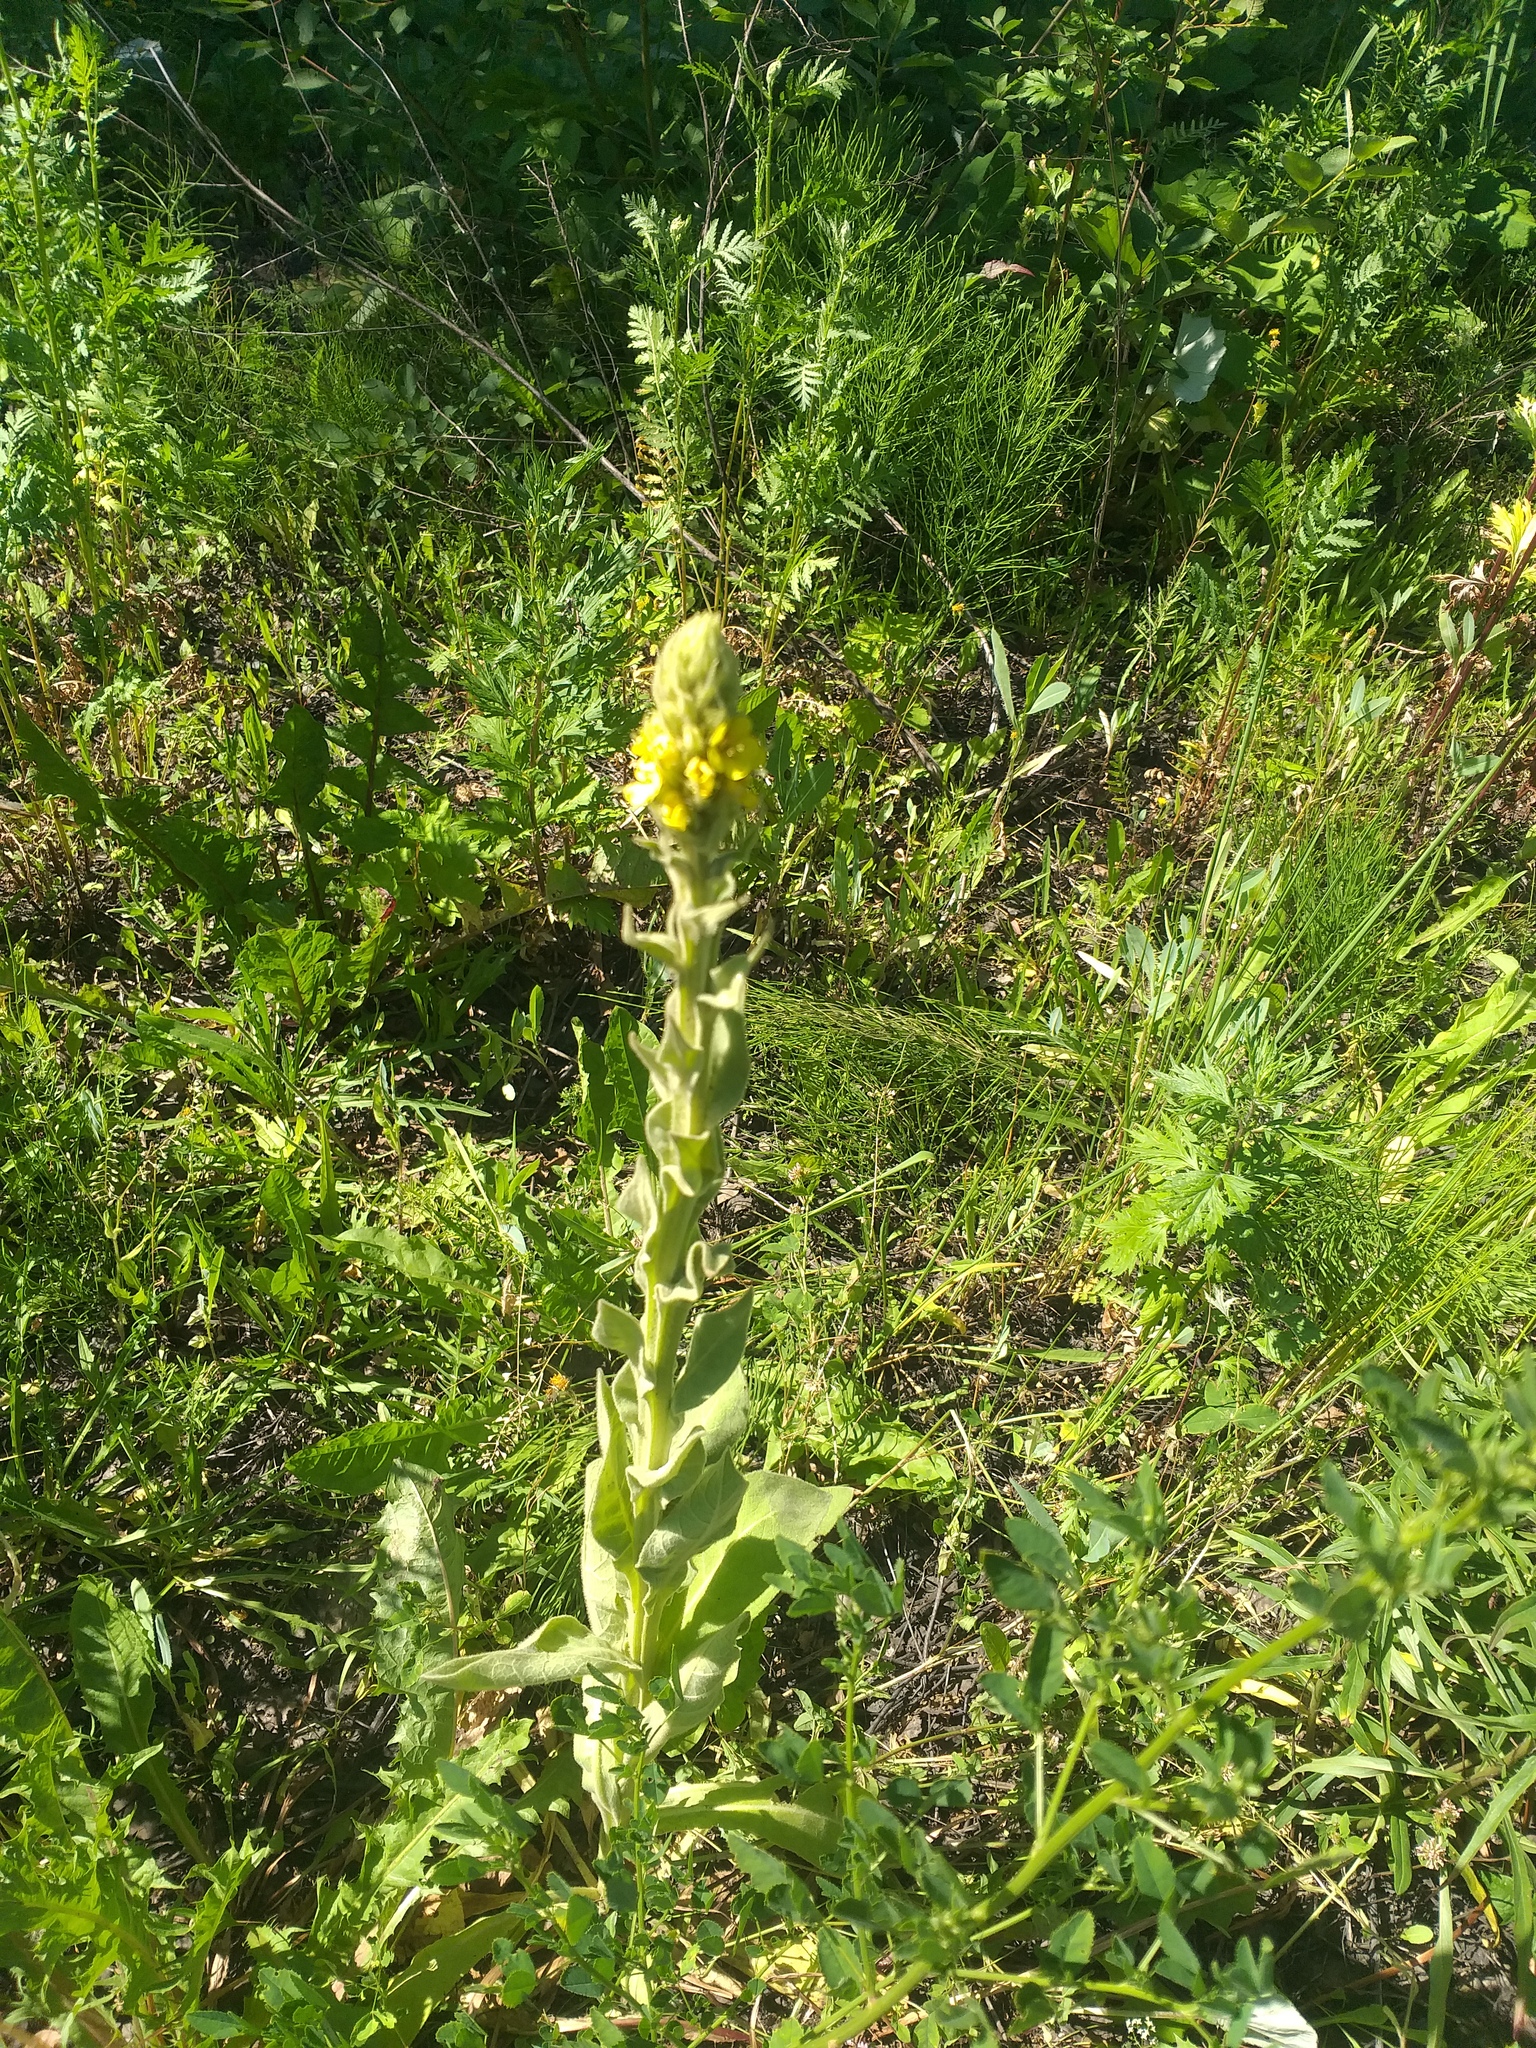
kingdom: Plantae
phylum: Tracheophyta
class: Magnoliopsida
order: Lamiales
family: Scrophulariaceae
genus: Verbascum
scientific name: Verbascum thapsus
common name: Common mullein
